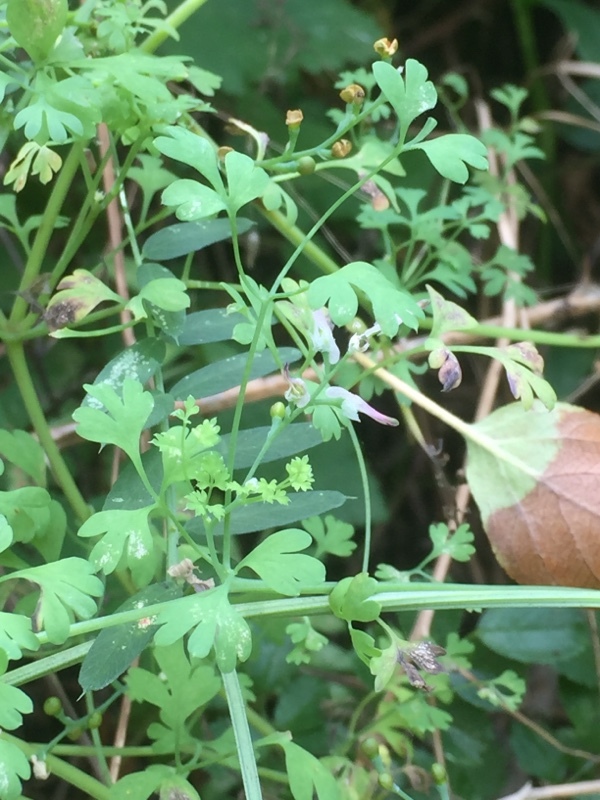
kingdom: Plantae
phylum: Tracheophyta
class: Magnoliopsida
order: Ranunculales
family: Papaveraceae
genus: Fumaria
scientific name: Fumaria parviflora
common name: Fine-leaved fumitory
